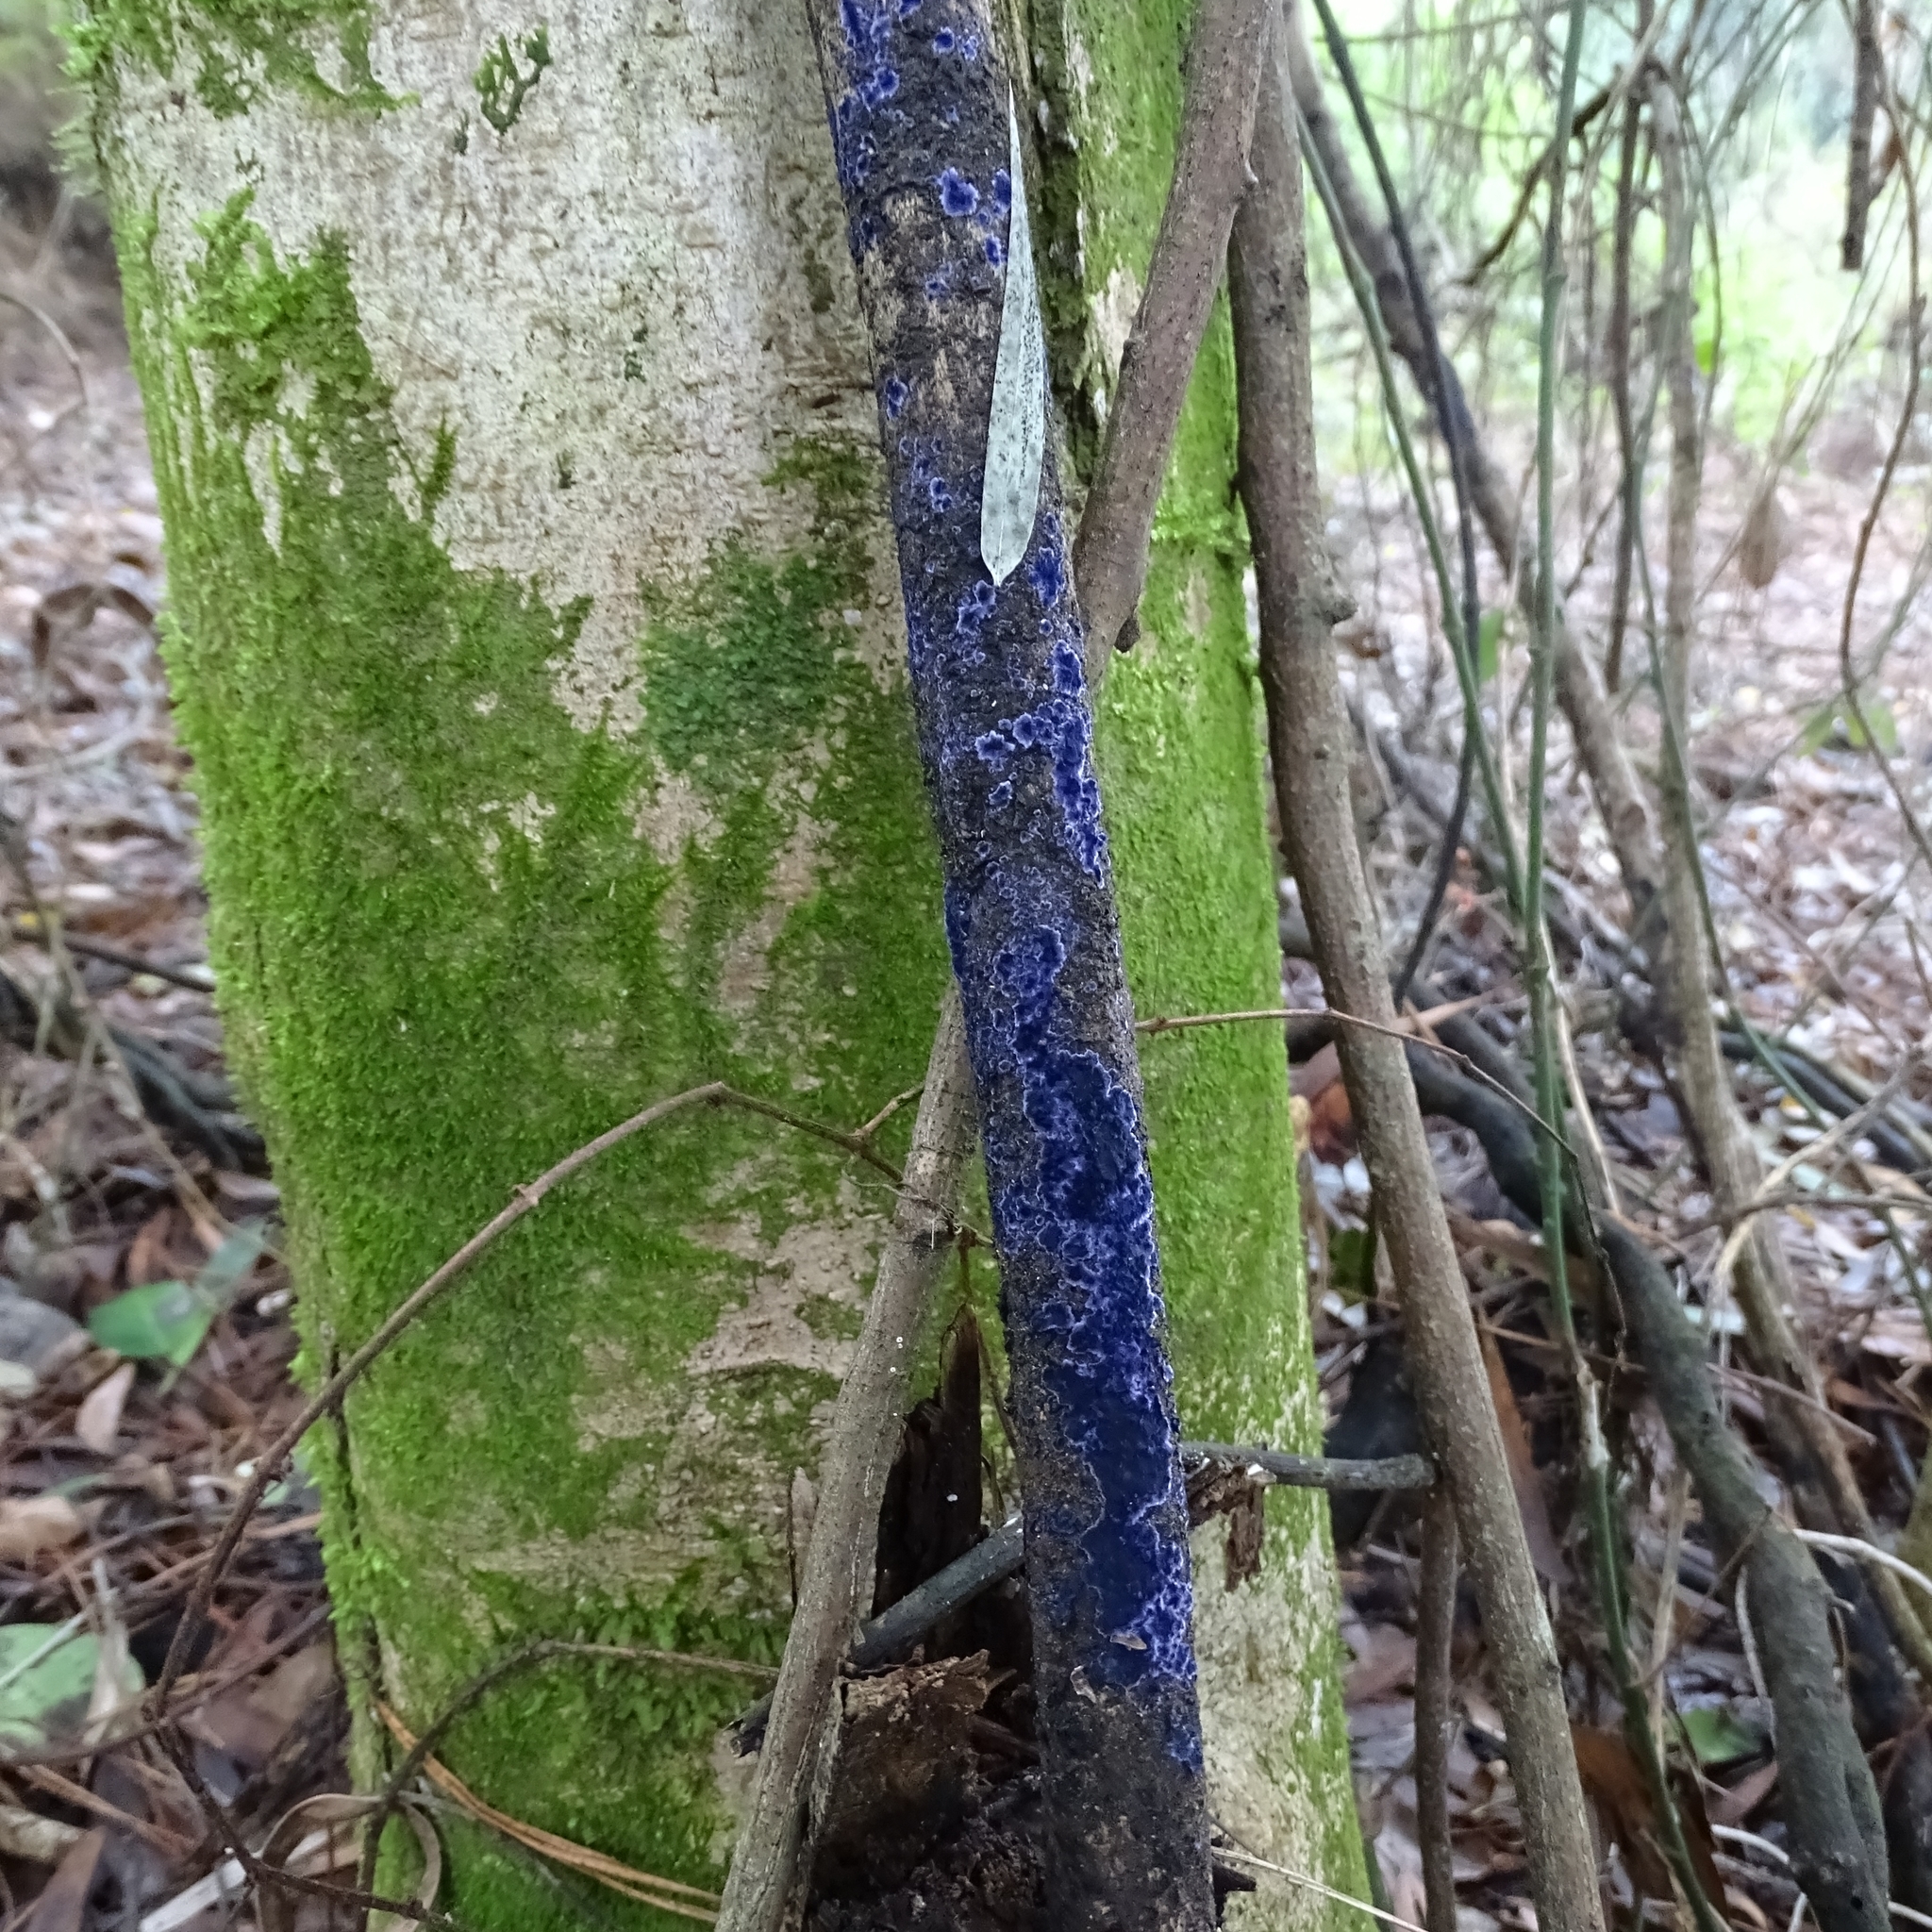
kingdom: Fungi
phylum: Basidiomycota
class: Agaricomycetes
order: Polyporales
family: Phanerochaetaceae
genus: Terana
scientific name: Terana coerulea
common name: Cobalt crust
